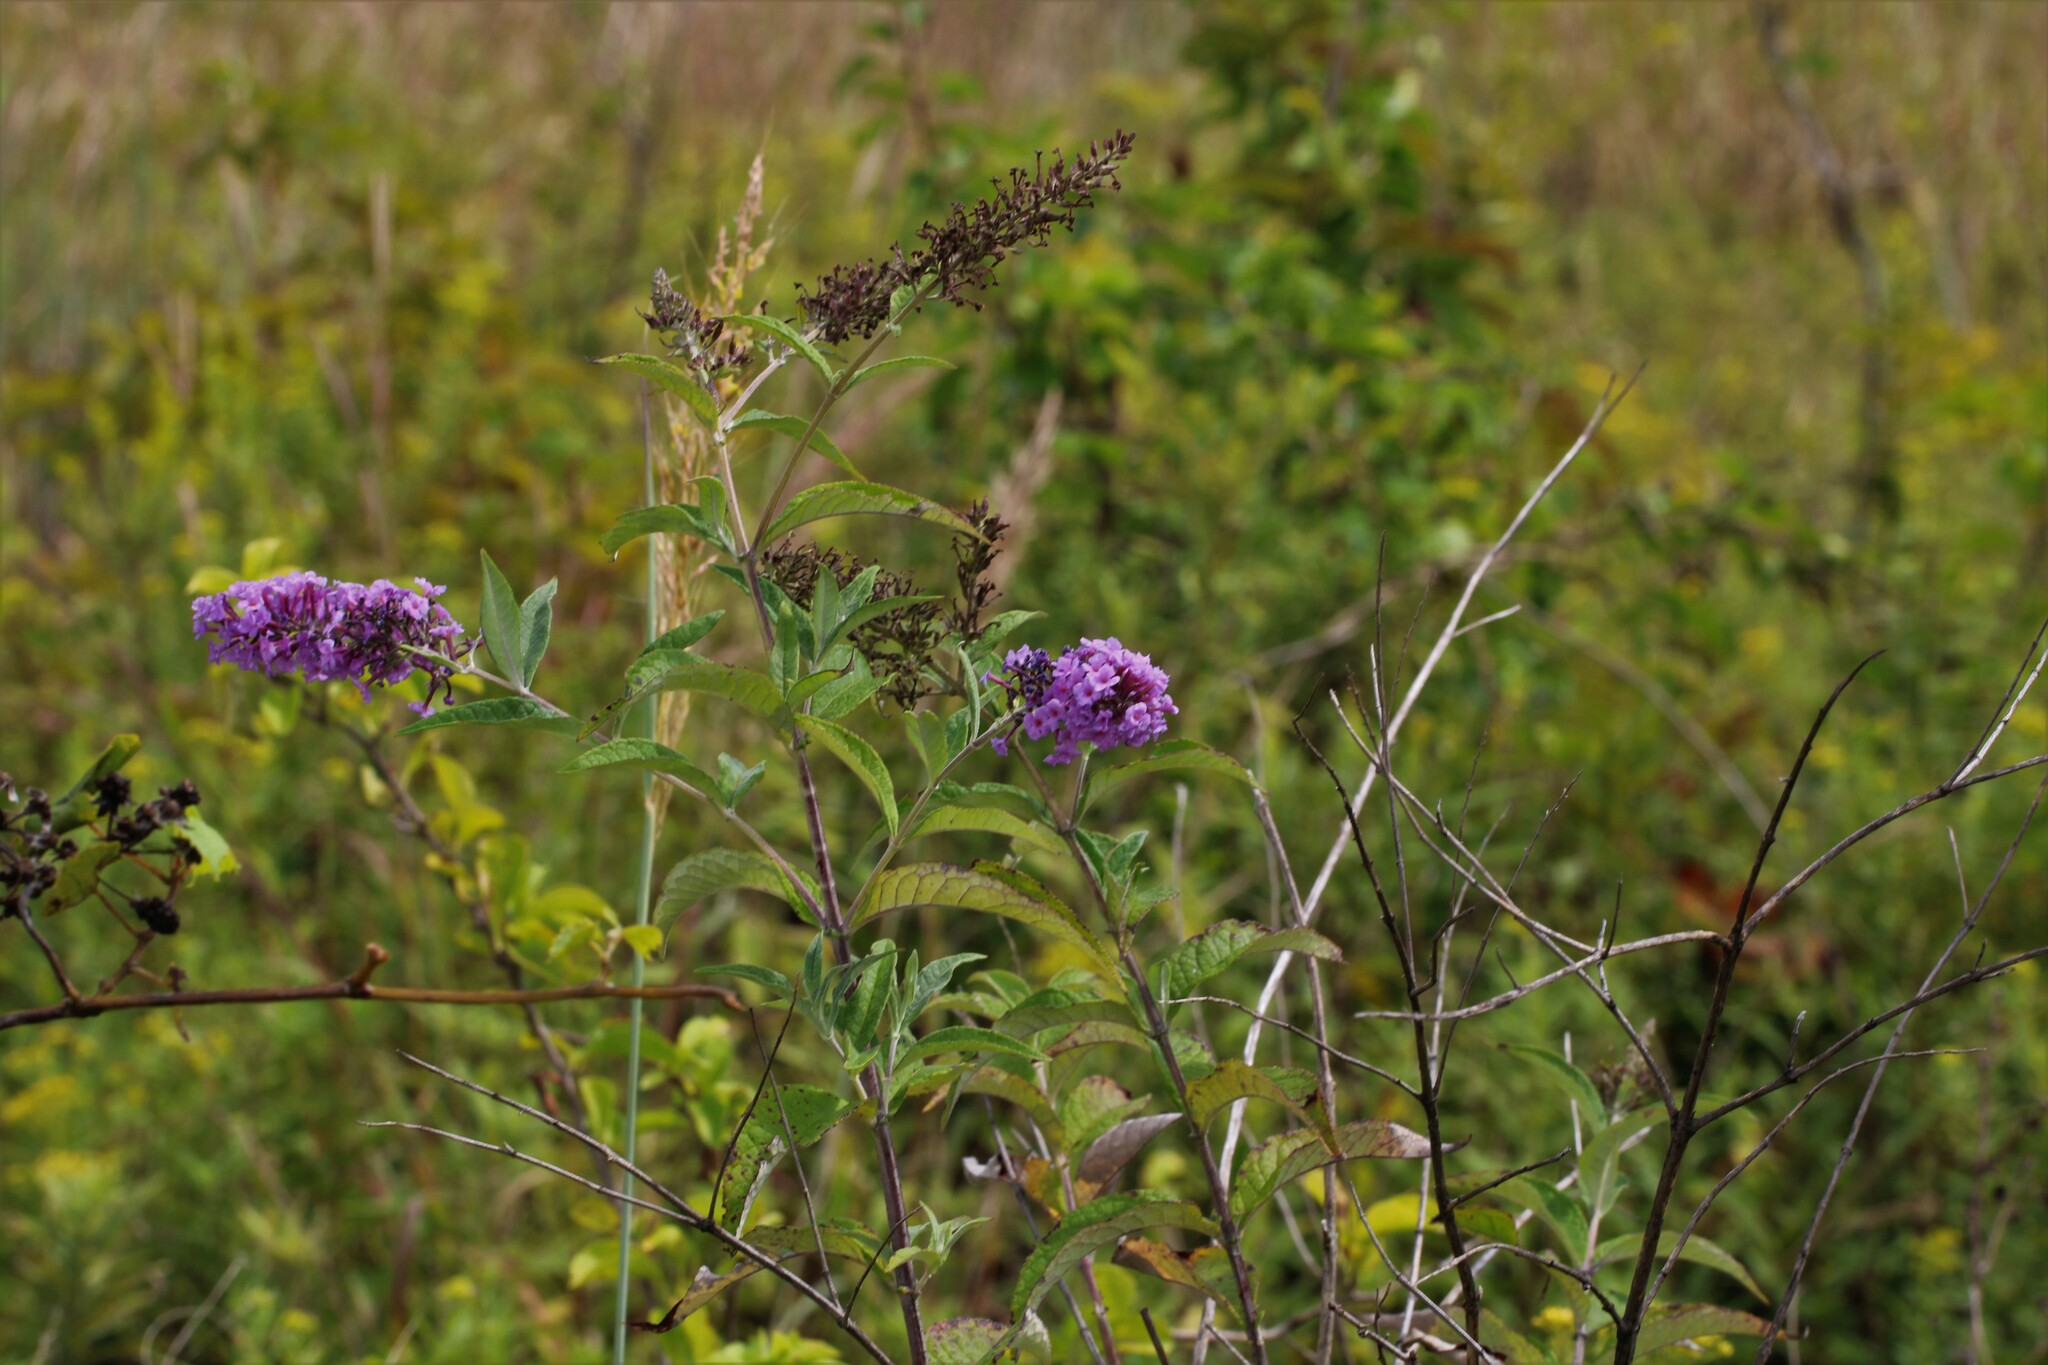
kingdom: Plantae
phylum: Tracheophyta
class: Magnoliopsida
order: Lamiales
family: Scrophulariaceae
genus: Buddleja
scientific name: Buddleja davidii
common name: Butterfly-bush
